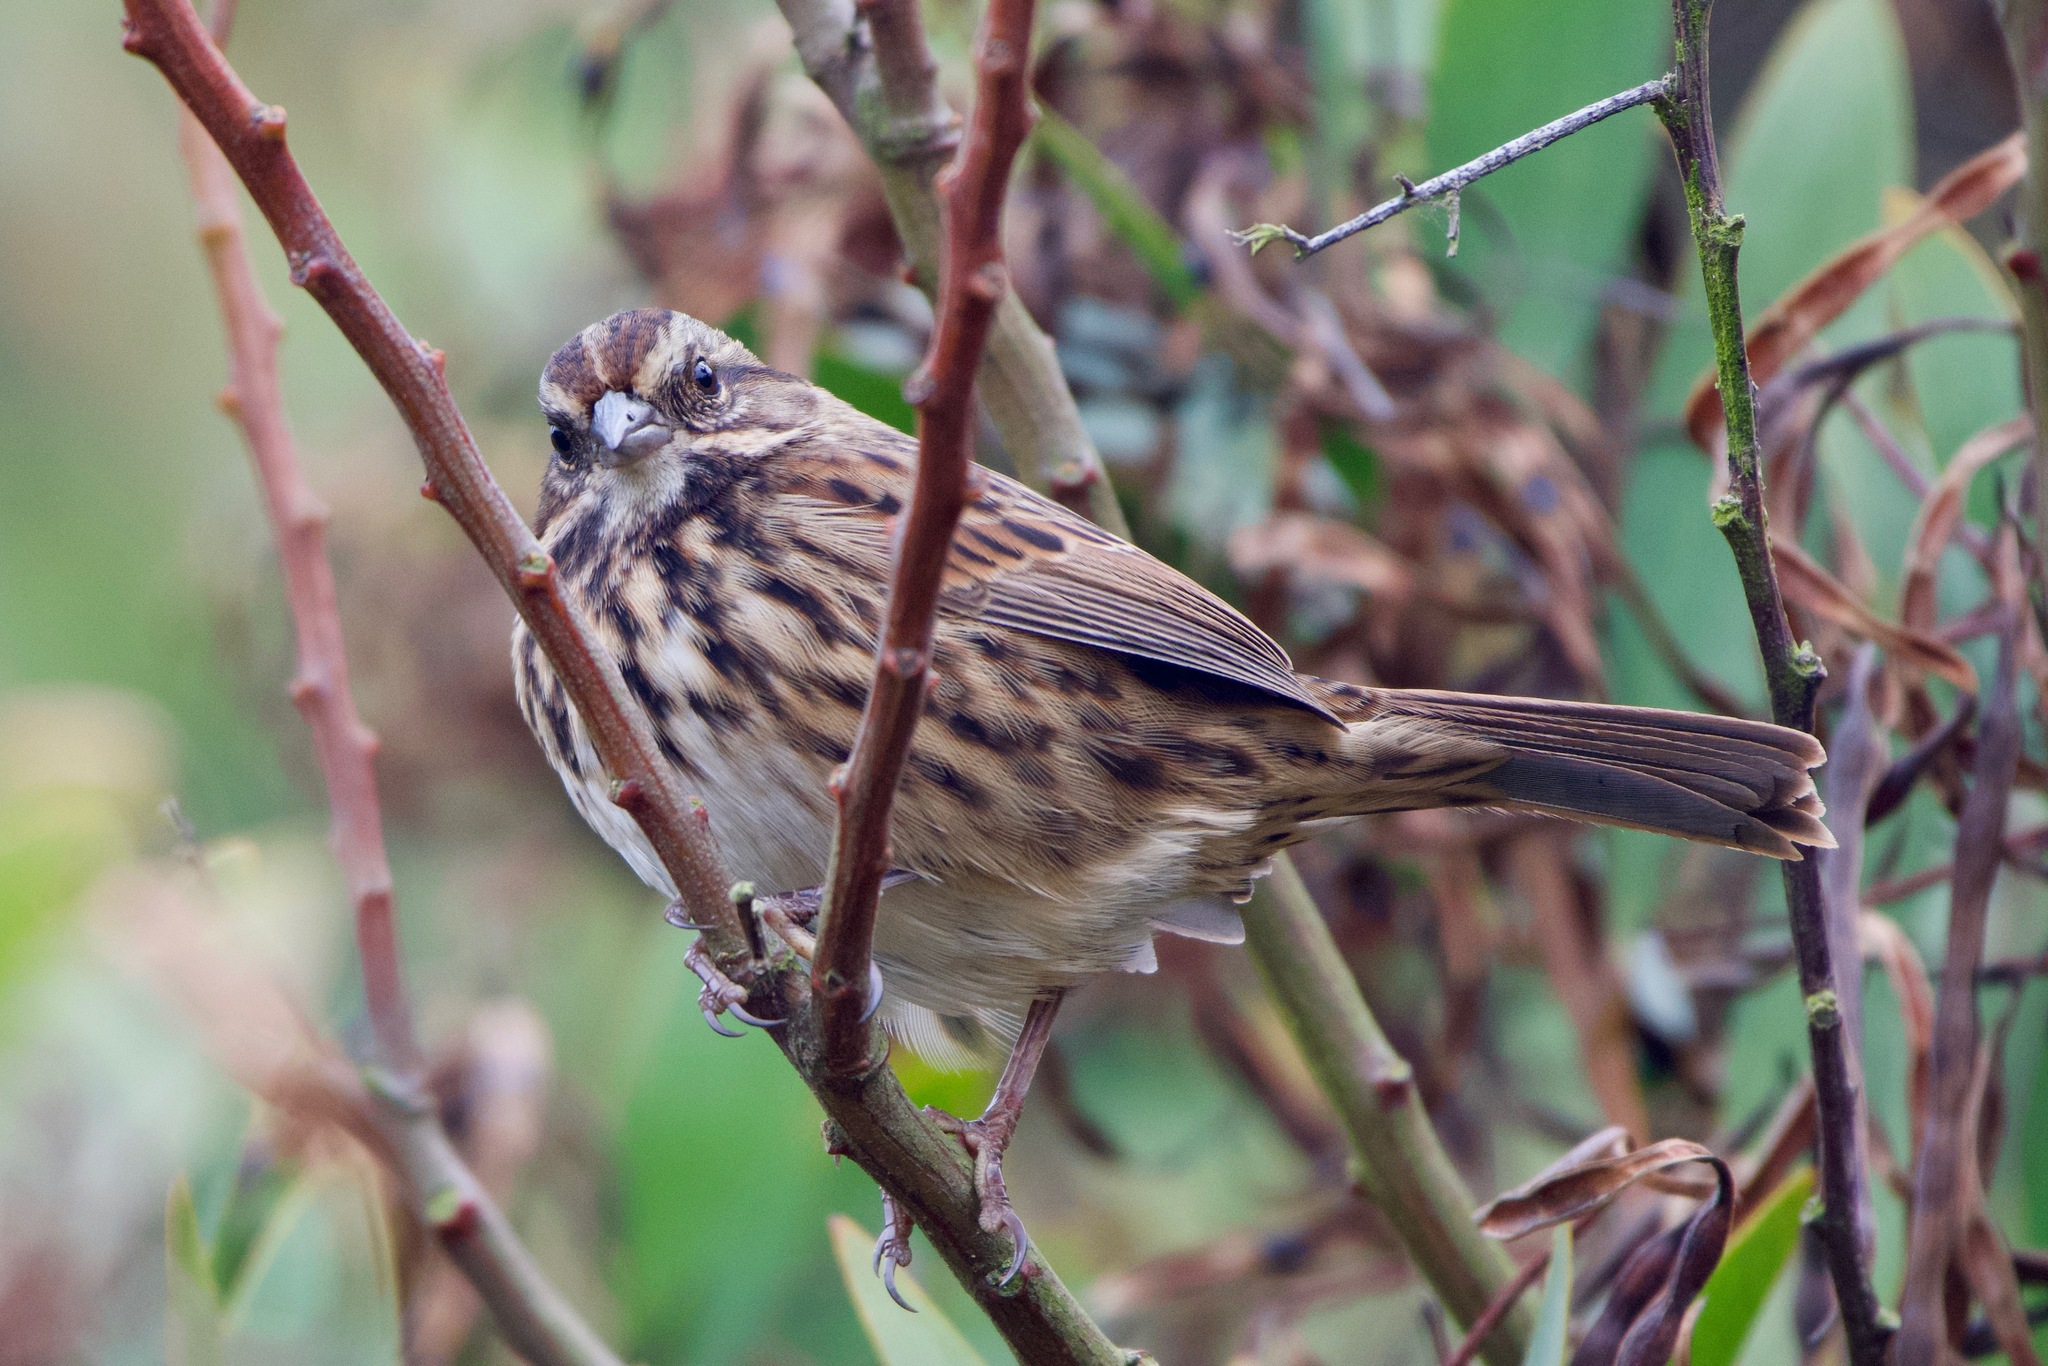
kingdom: Animalia
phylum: Chordata
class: Aves
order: Passeriformes
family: Passerellidae
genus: Melospiza
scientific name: Melospiza melodia
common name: Song sparrow
